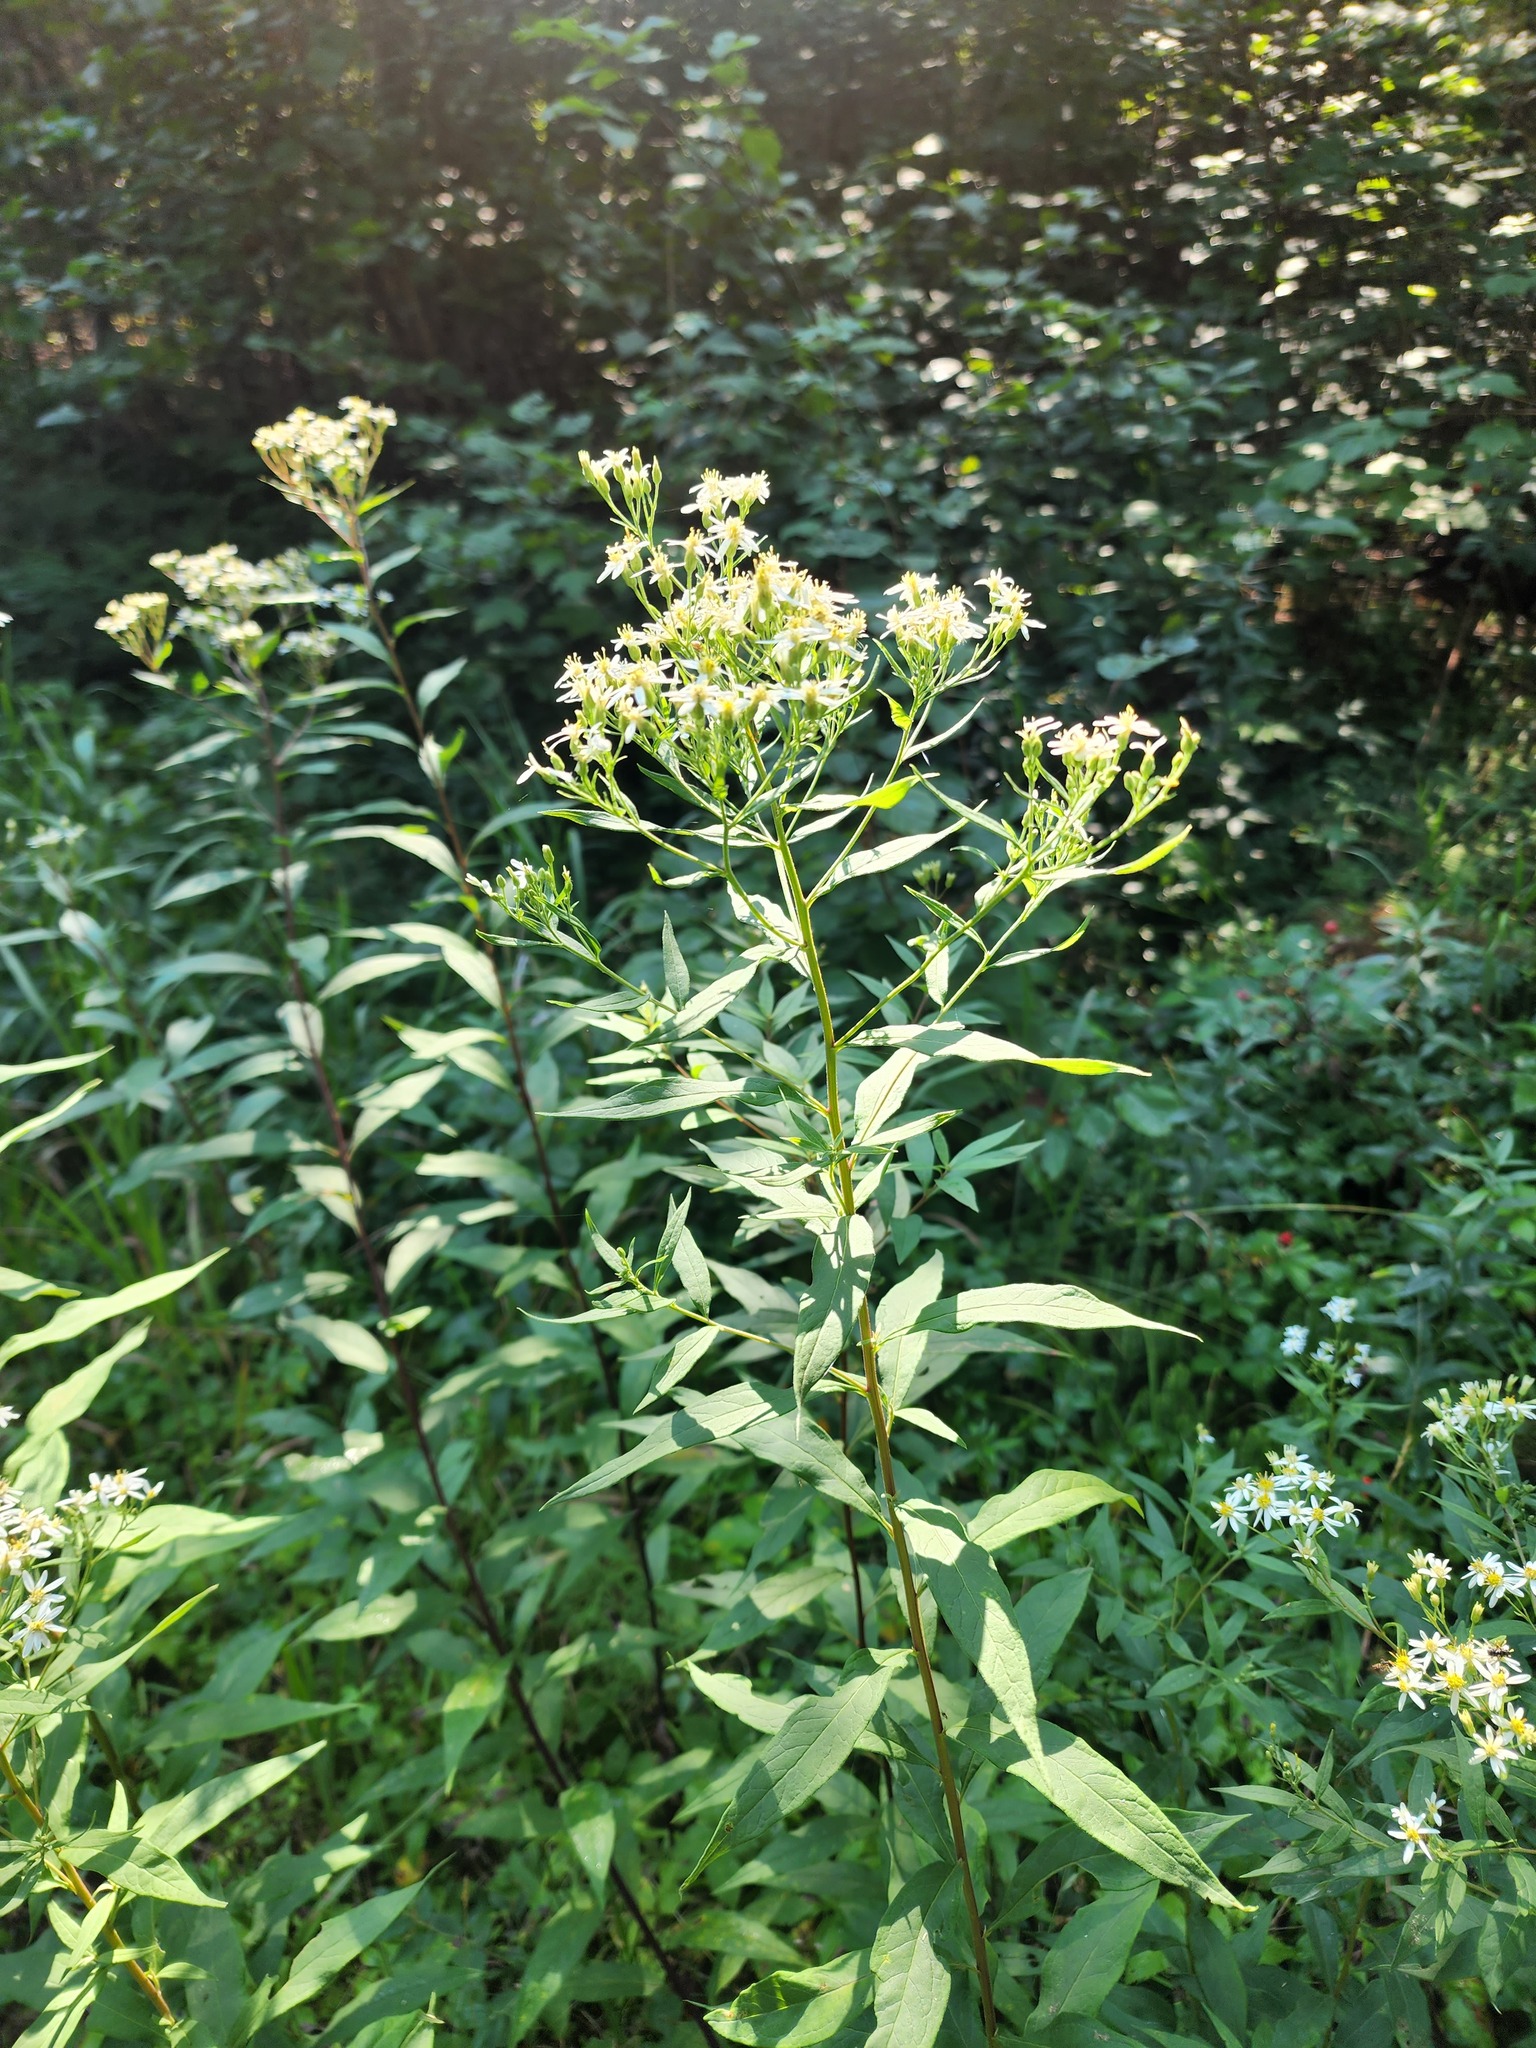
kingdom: Plantae
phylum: Tracheophyta
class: Magnoliopsida
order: Asterales
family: Asteraceae
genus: Doellingeria
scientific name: Doellingeria umbellata
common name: Flat-top white aster
